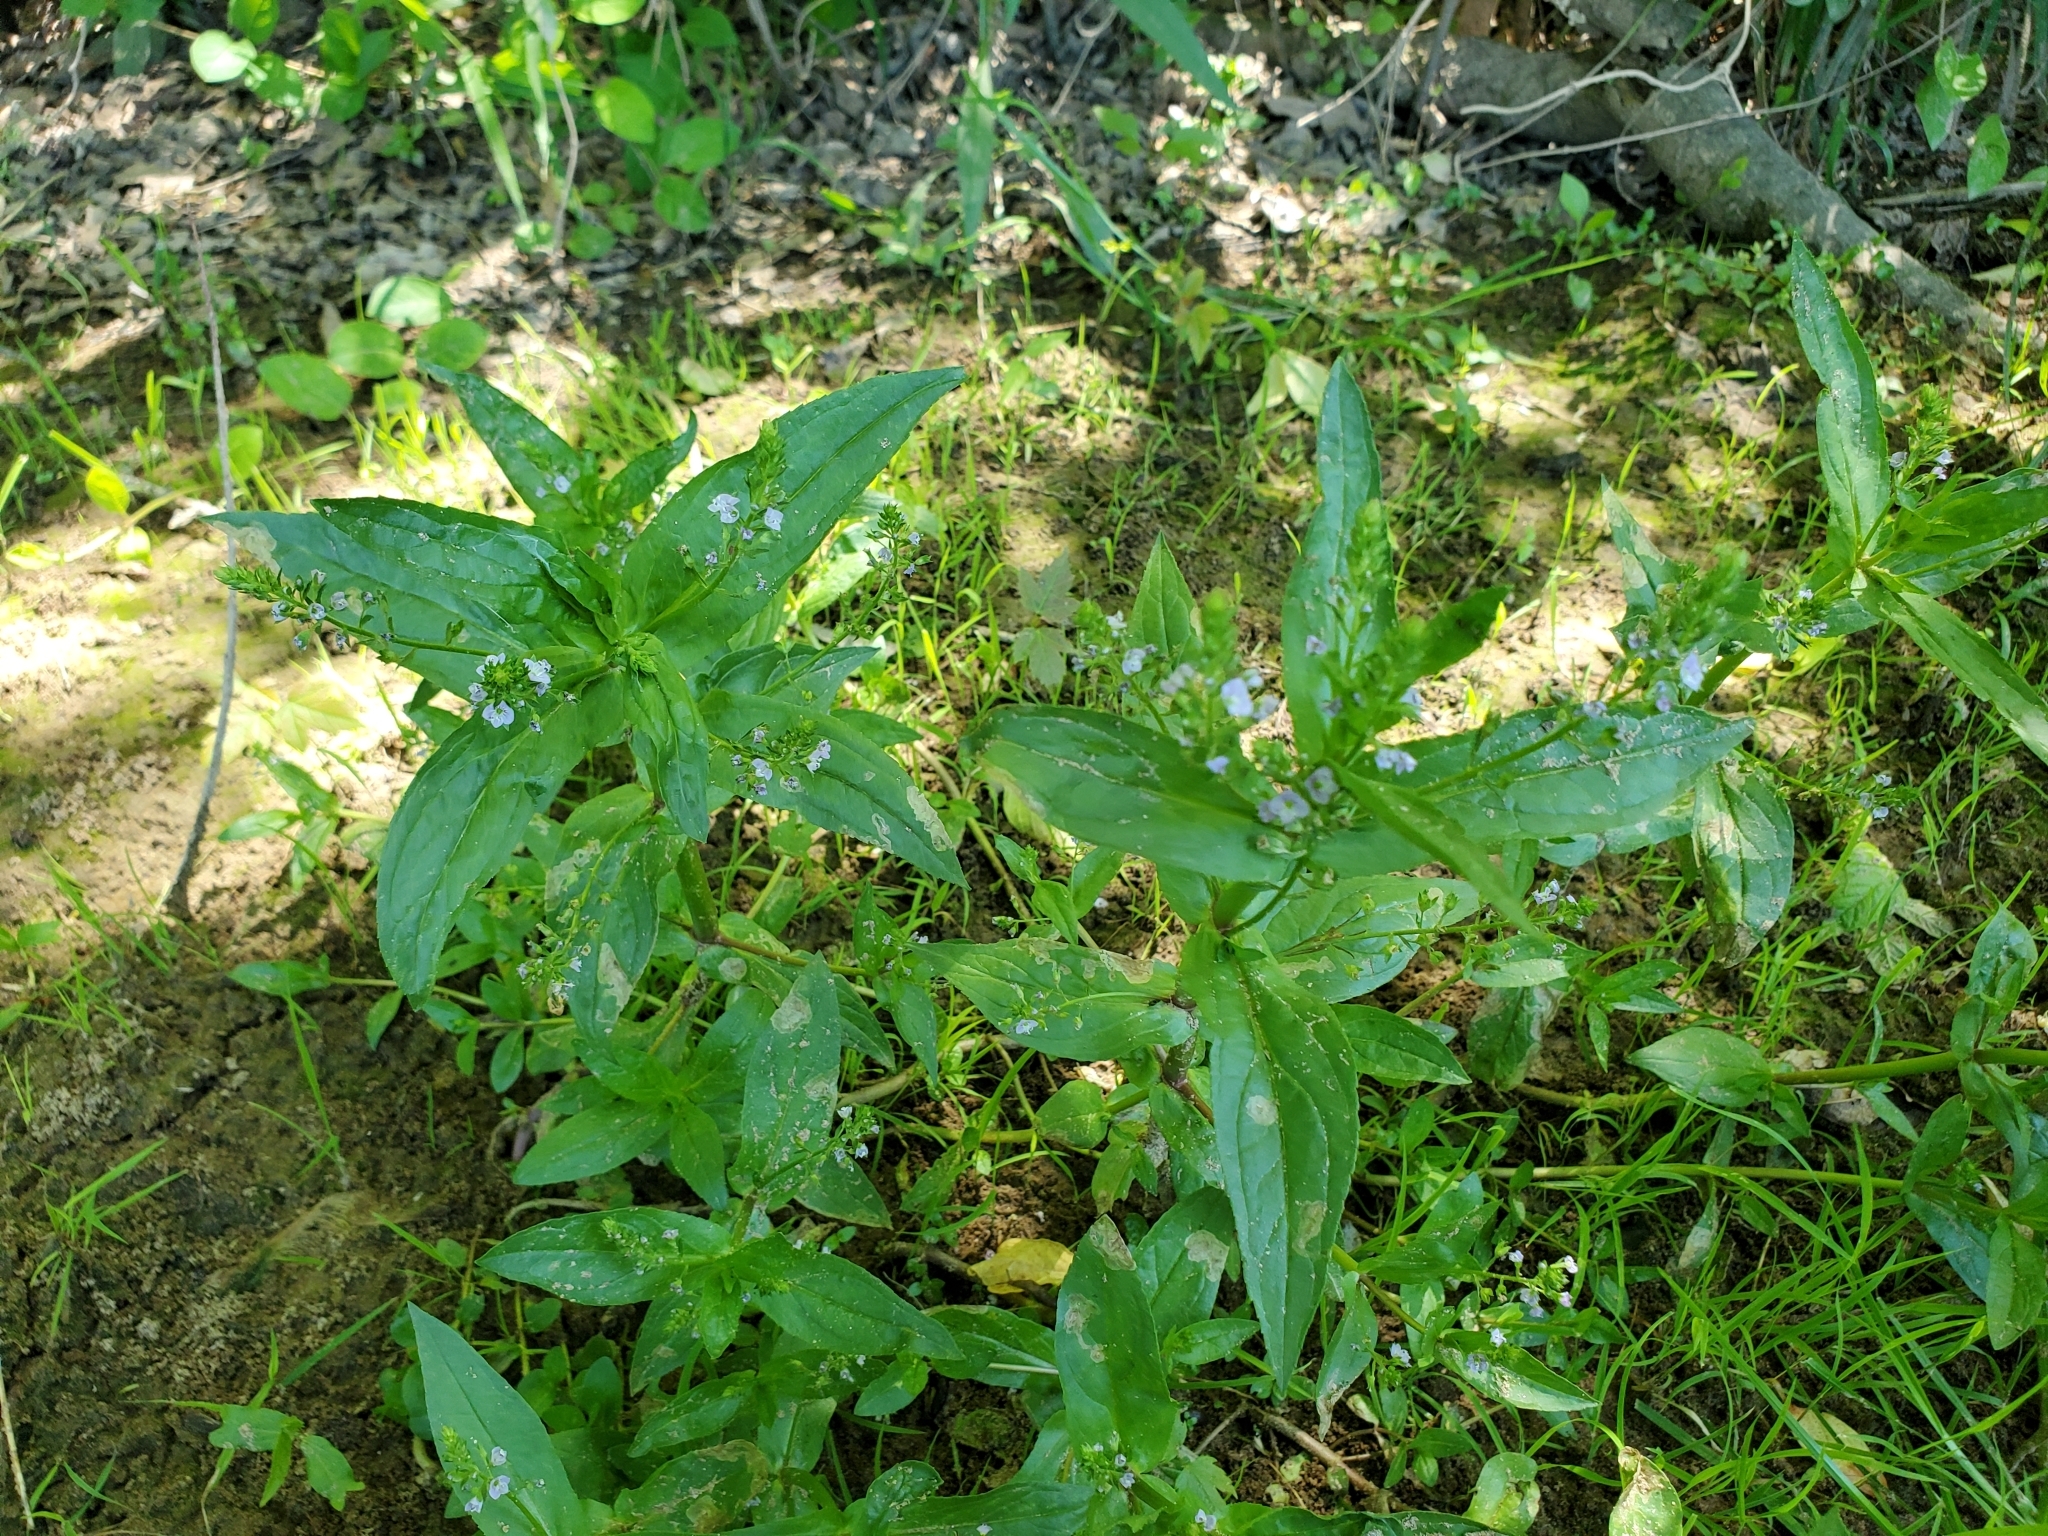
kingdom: Plantae
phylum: Tracheophyta
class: Magnoliopsida
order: Lamiales
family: Plantaginaceae
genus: Veronica
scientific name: Veronica anagallis-aquatica
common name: Water speedwell
